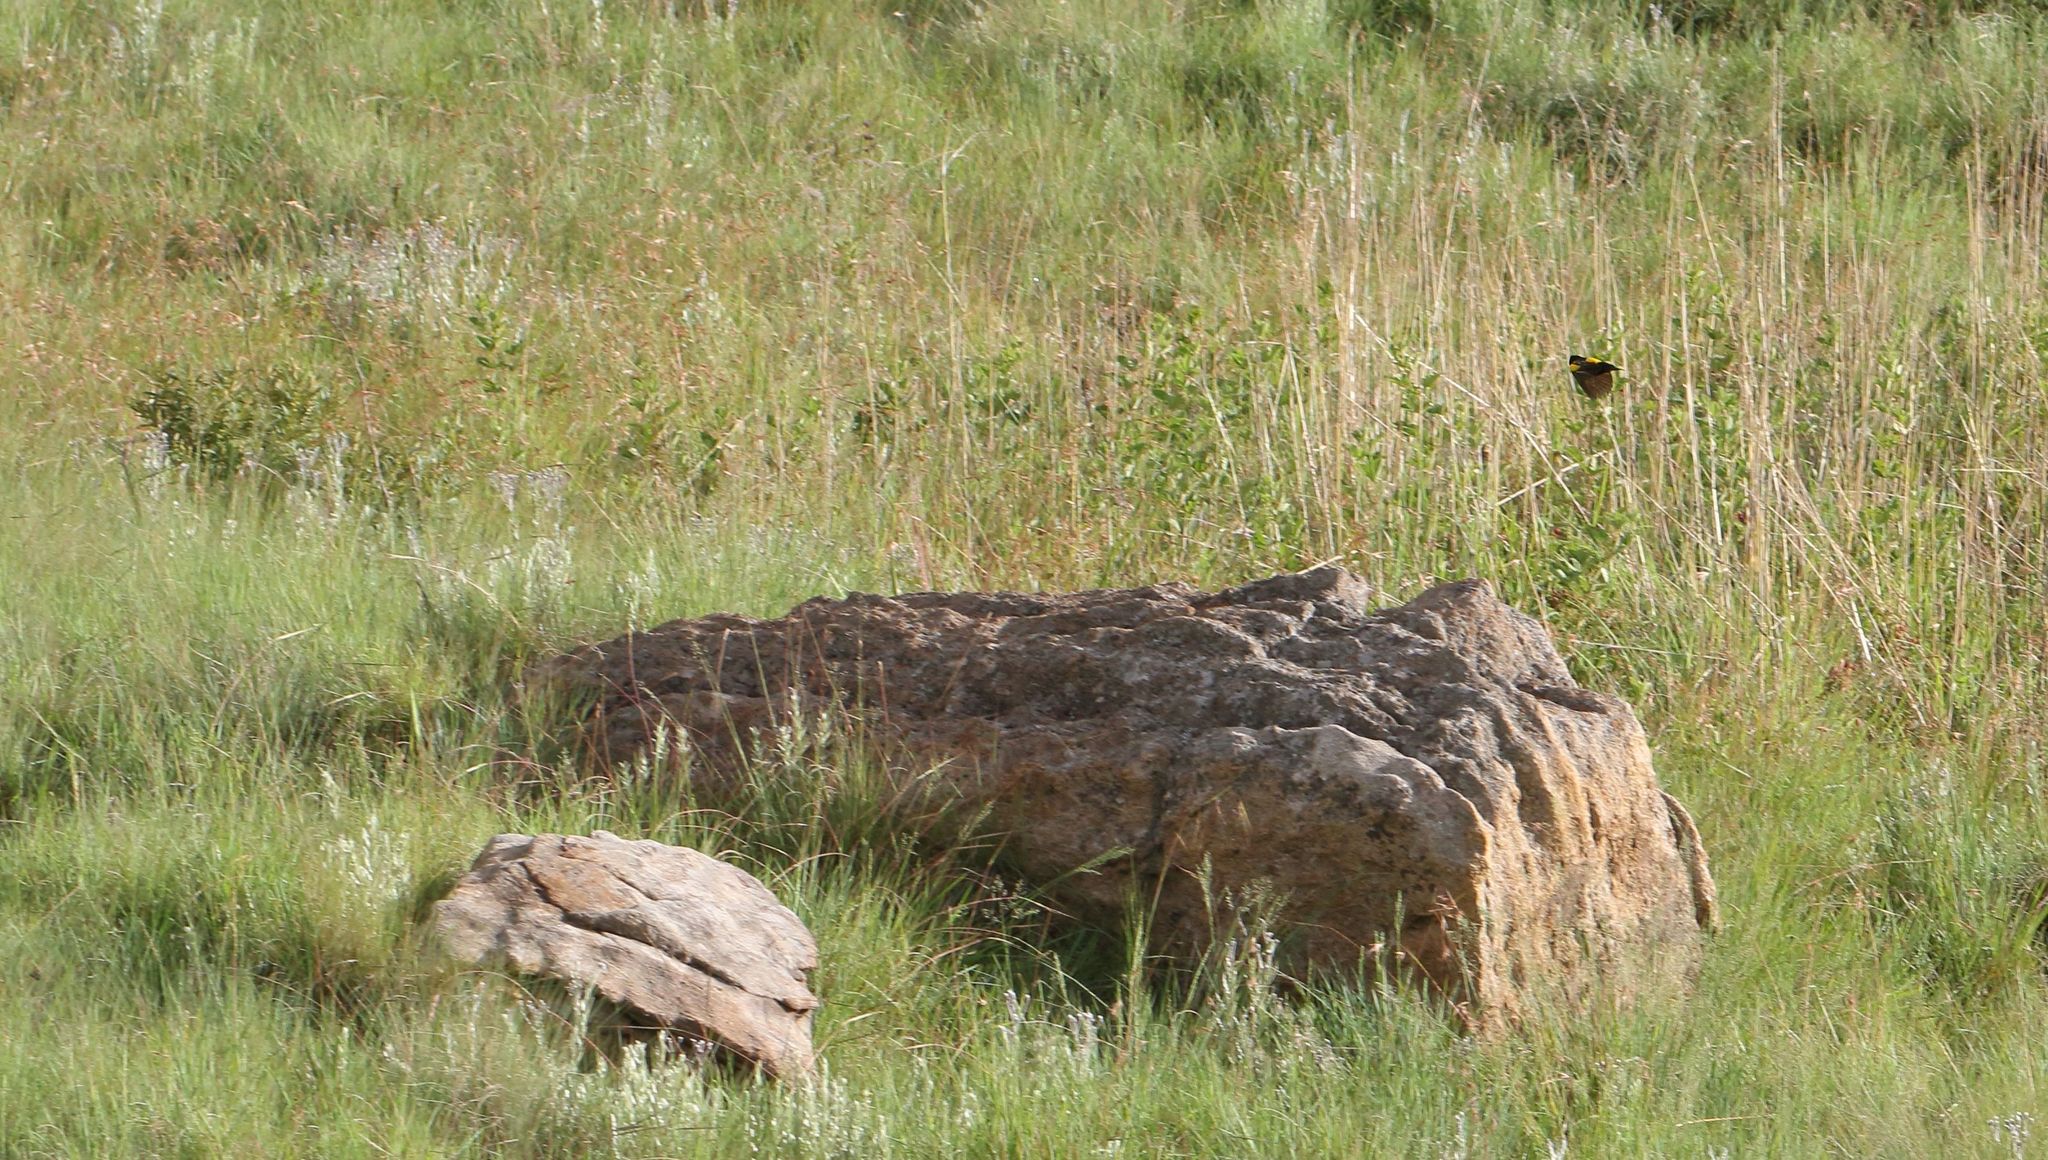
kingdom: Animalia
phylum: Chordata
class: Aves
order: Passeriformes
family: Ploceidae
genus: Euplectes
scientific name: Euplectes capensis
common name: Yellow bishop
